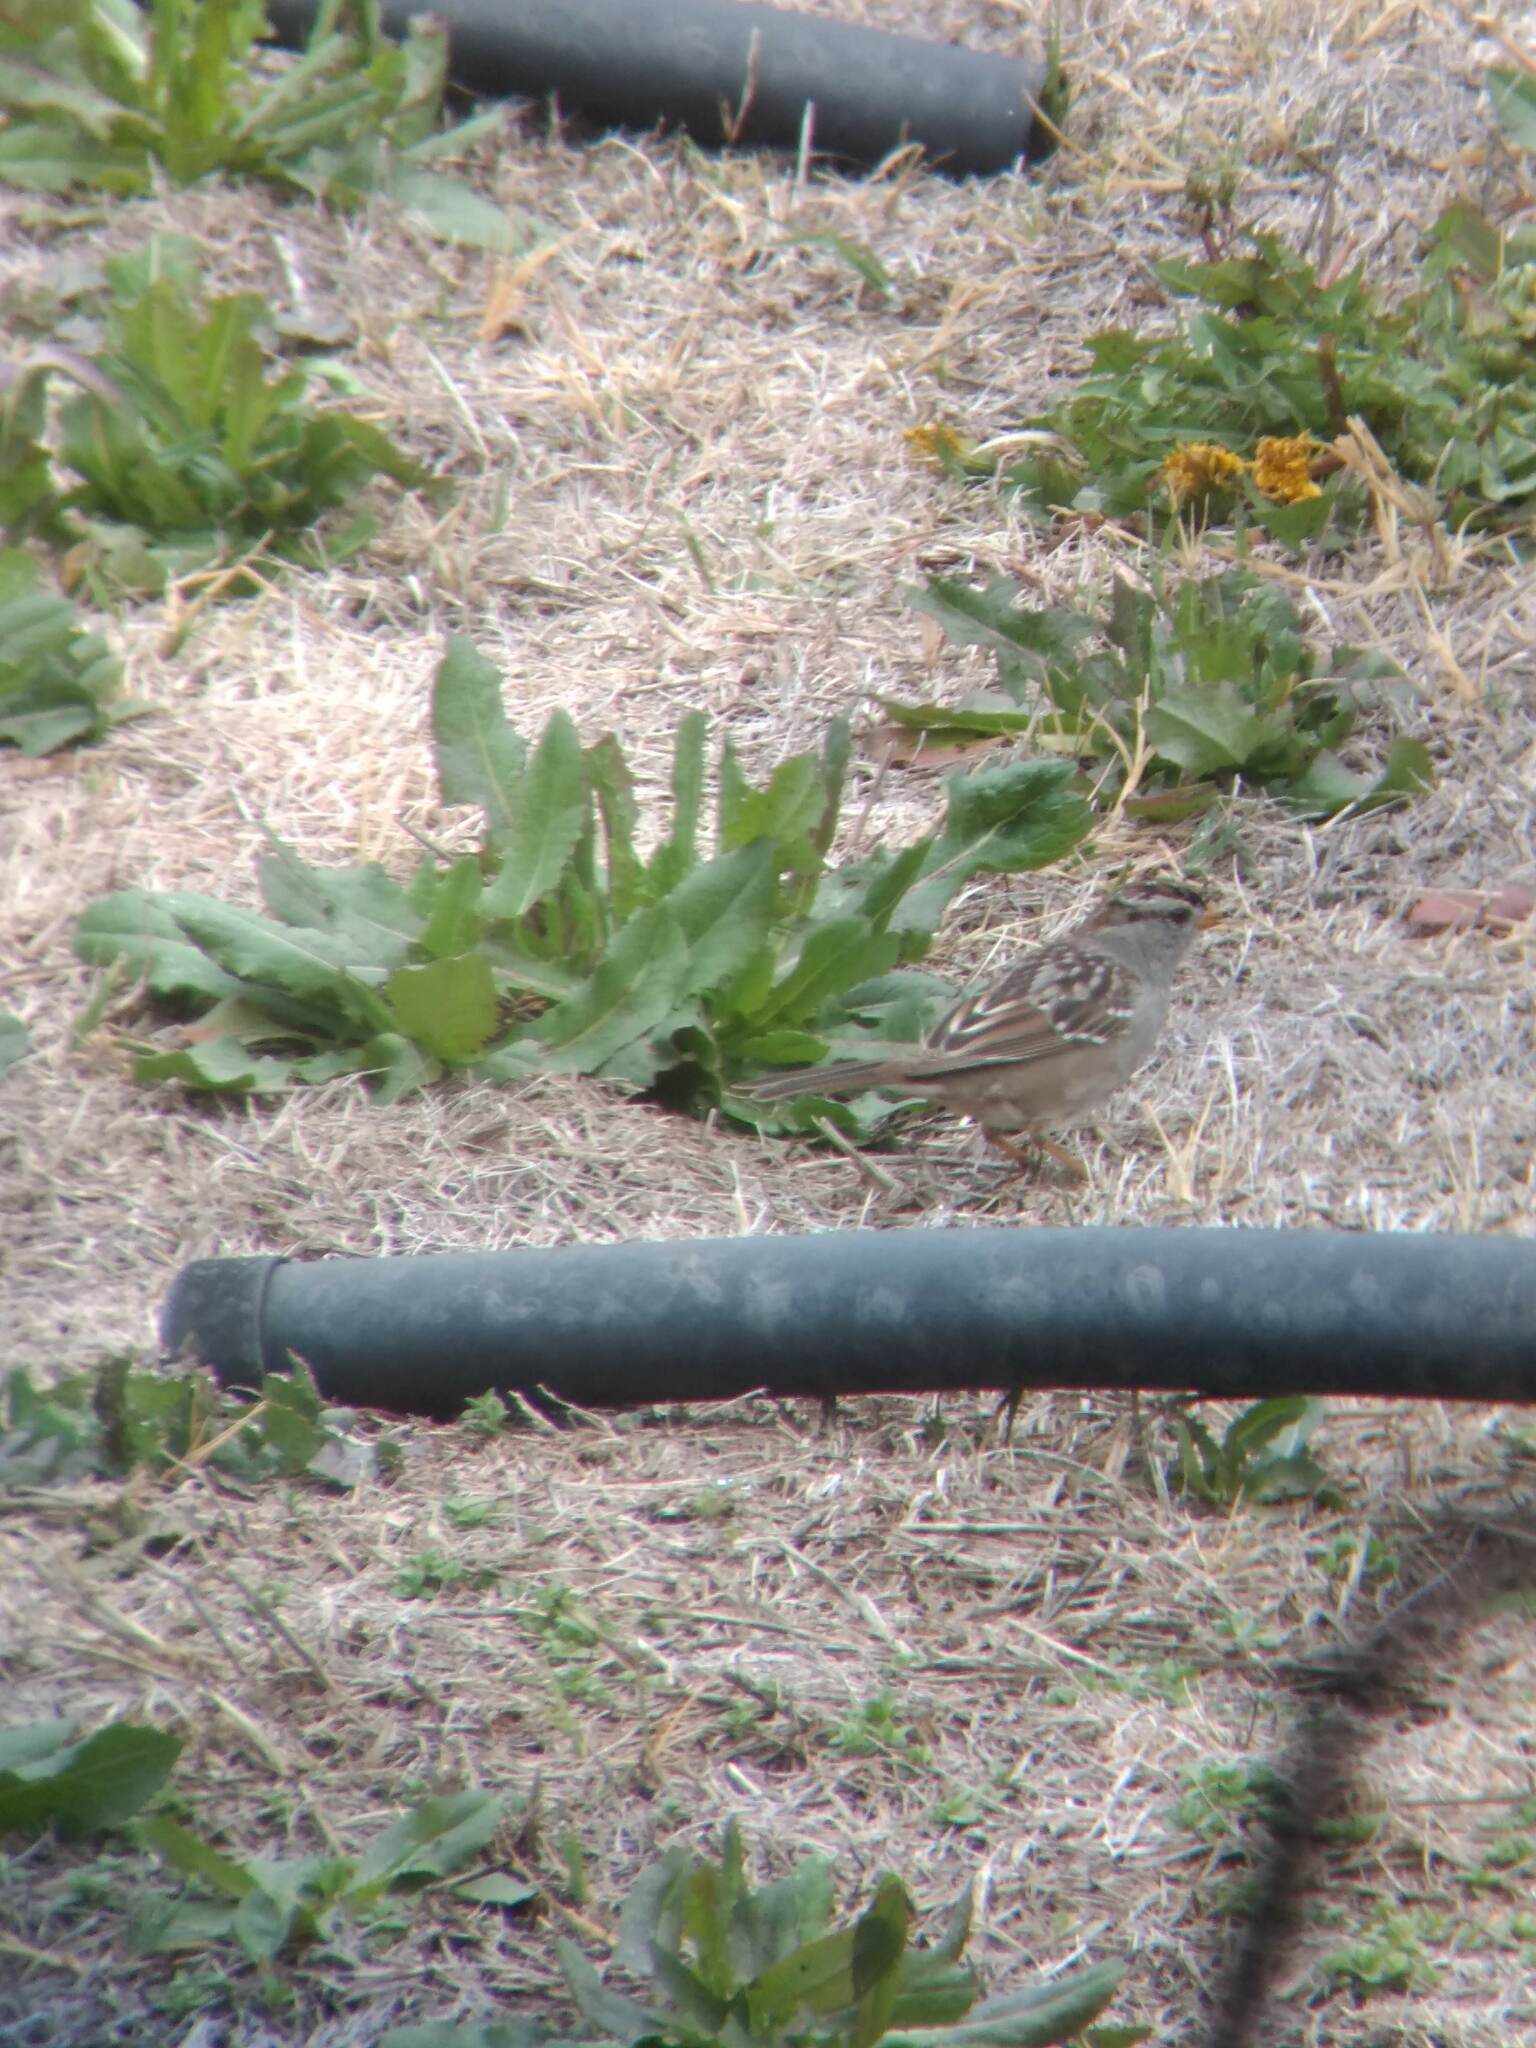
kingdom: Animalia
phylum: Chordata
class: Aves
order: Passeriformes
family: Passerellidae
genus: Zonotrichia
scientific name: Zonotrichia leucophrys
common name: White-crowned sparrow
